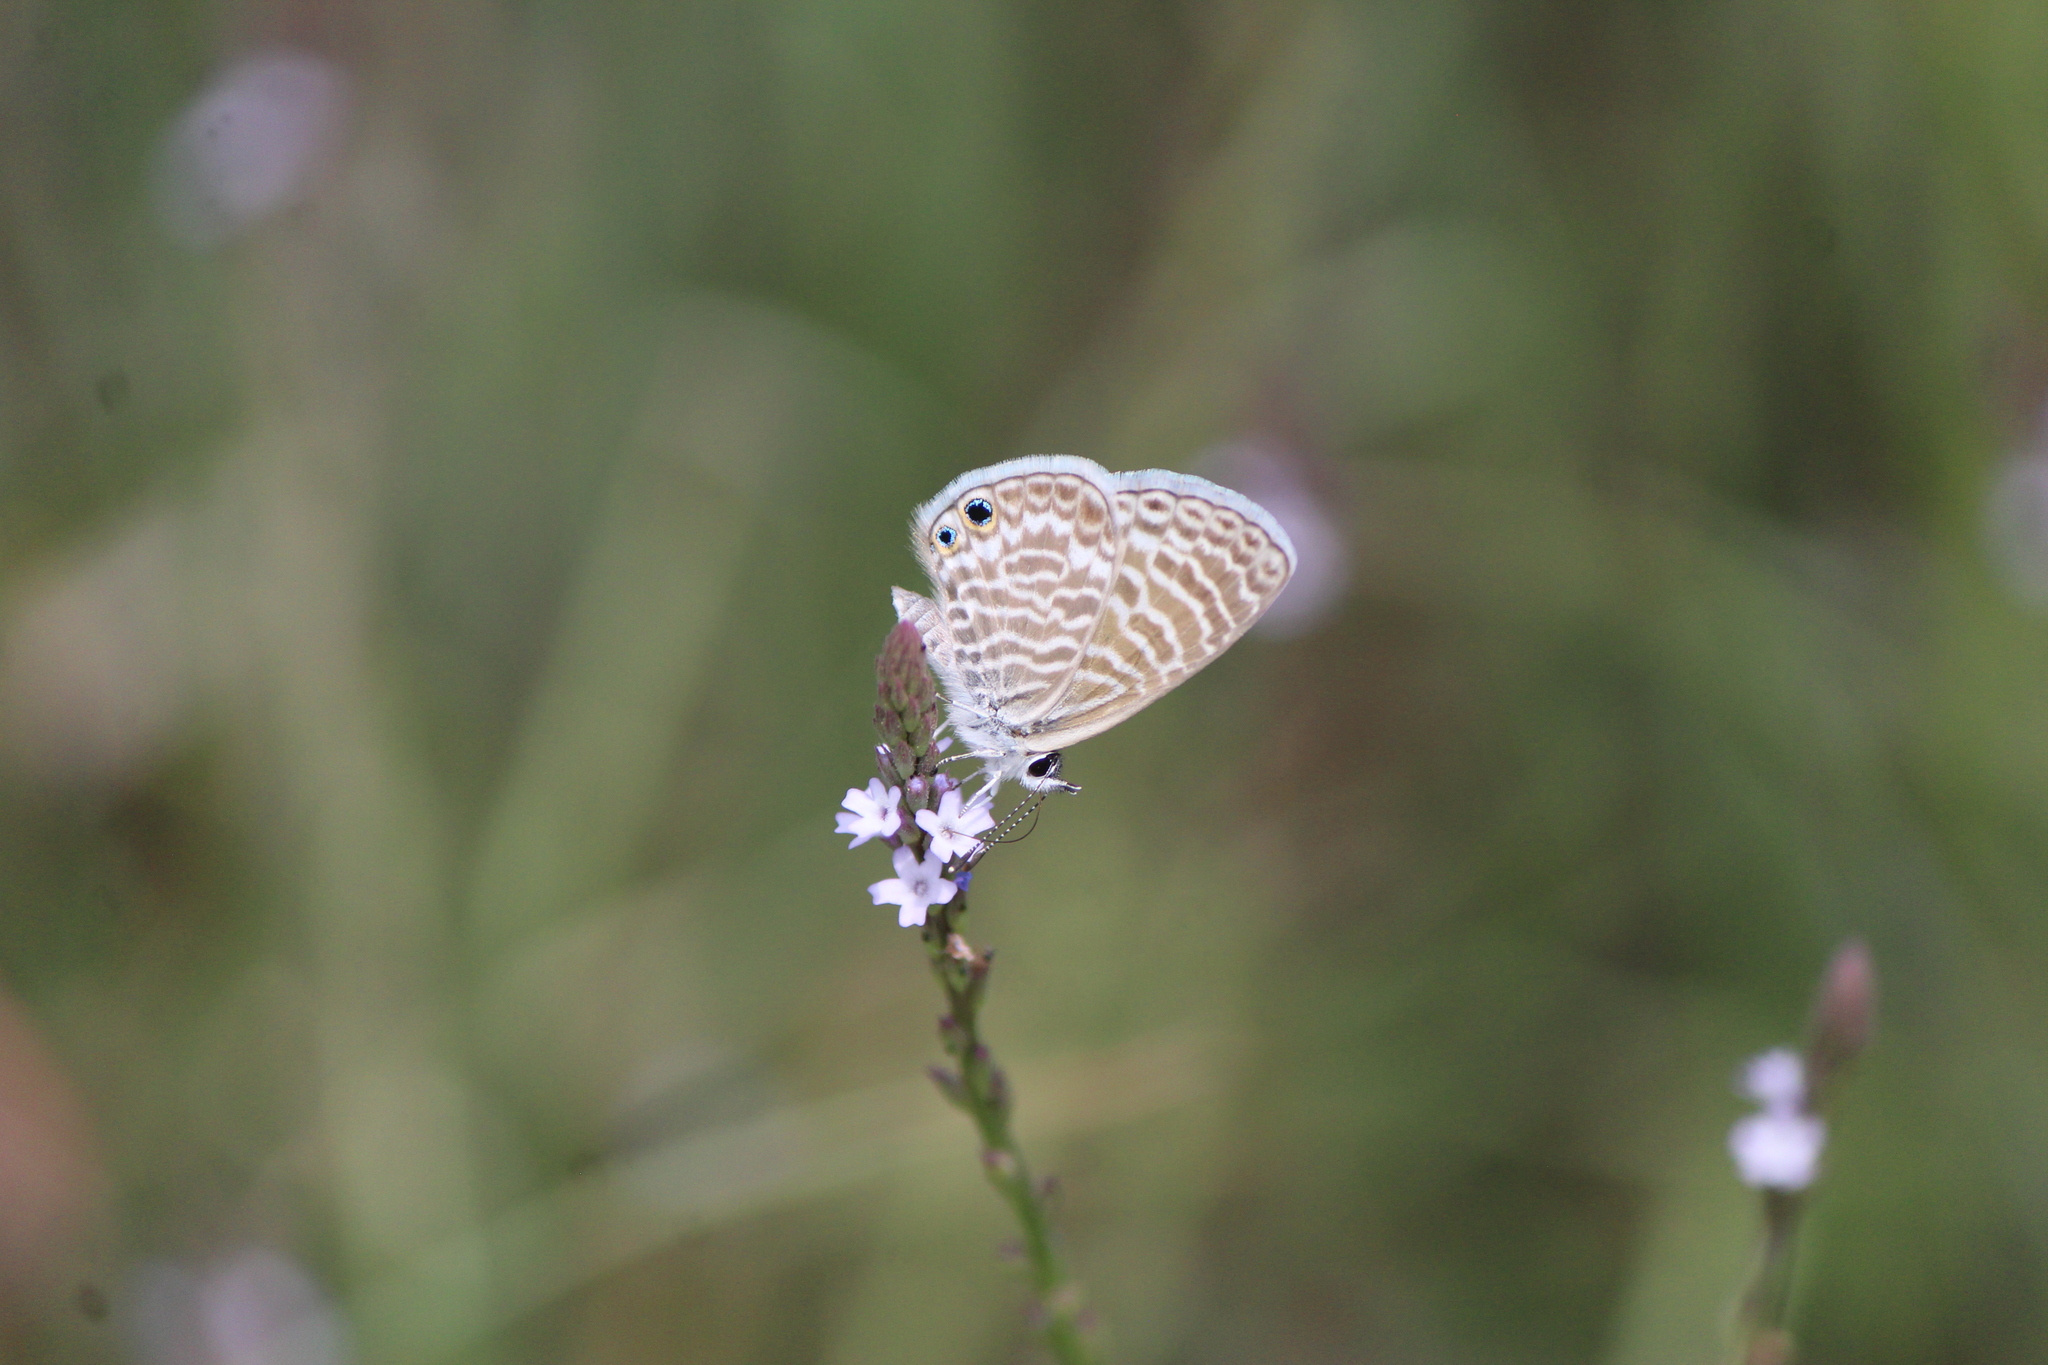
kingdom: Animalia
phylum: Arthropoda
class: Insecta
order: Lepidoptera
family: Lycaenidae
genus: Leptotes
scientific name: Leptotes marina
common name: Marine blue
